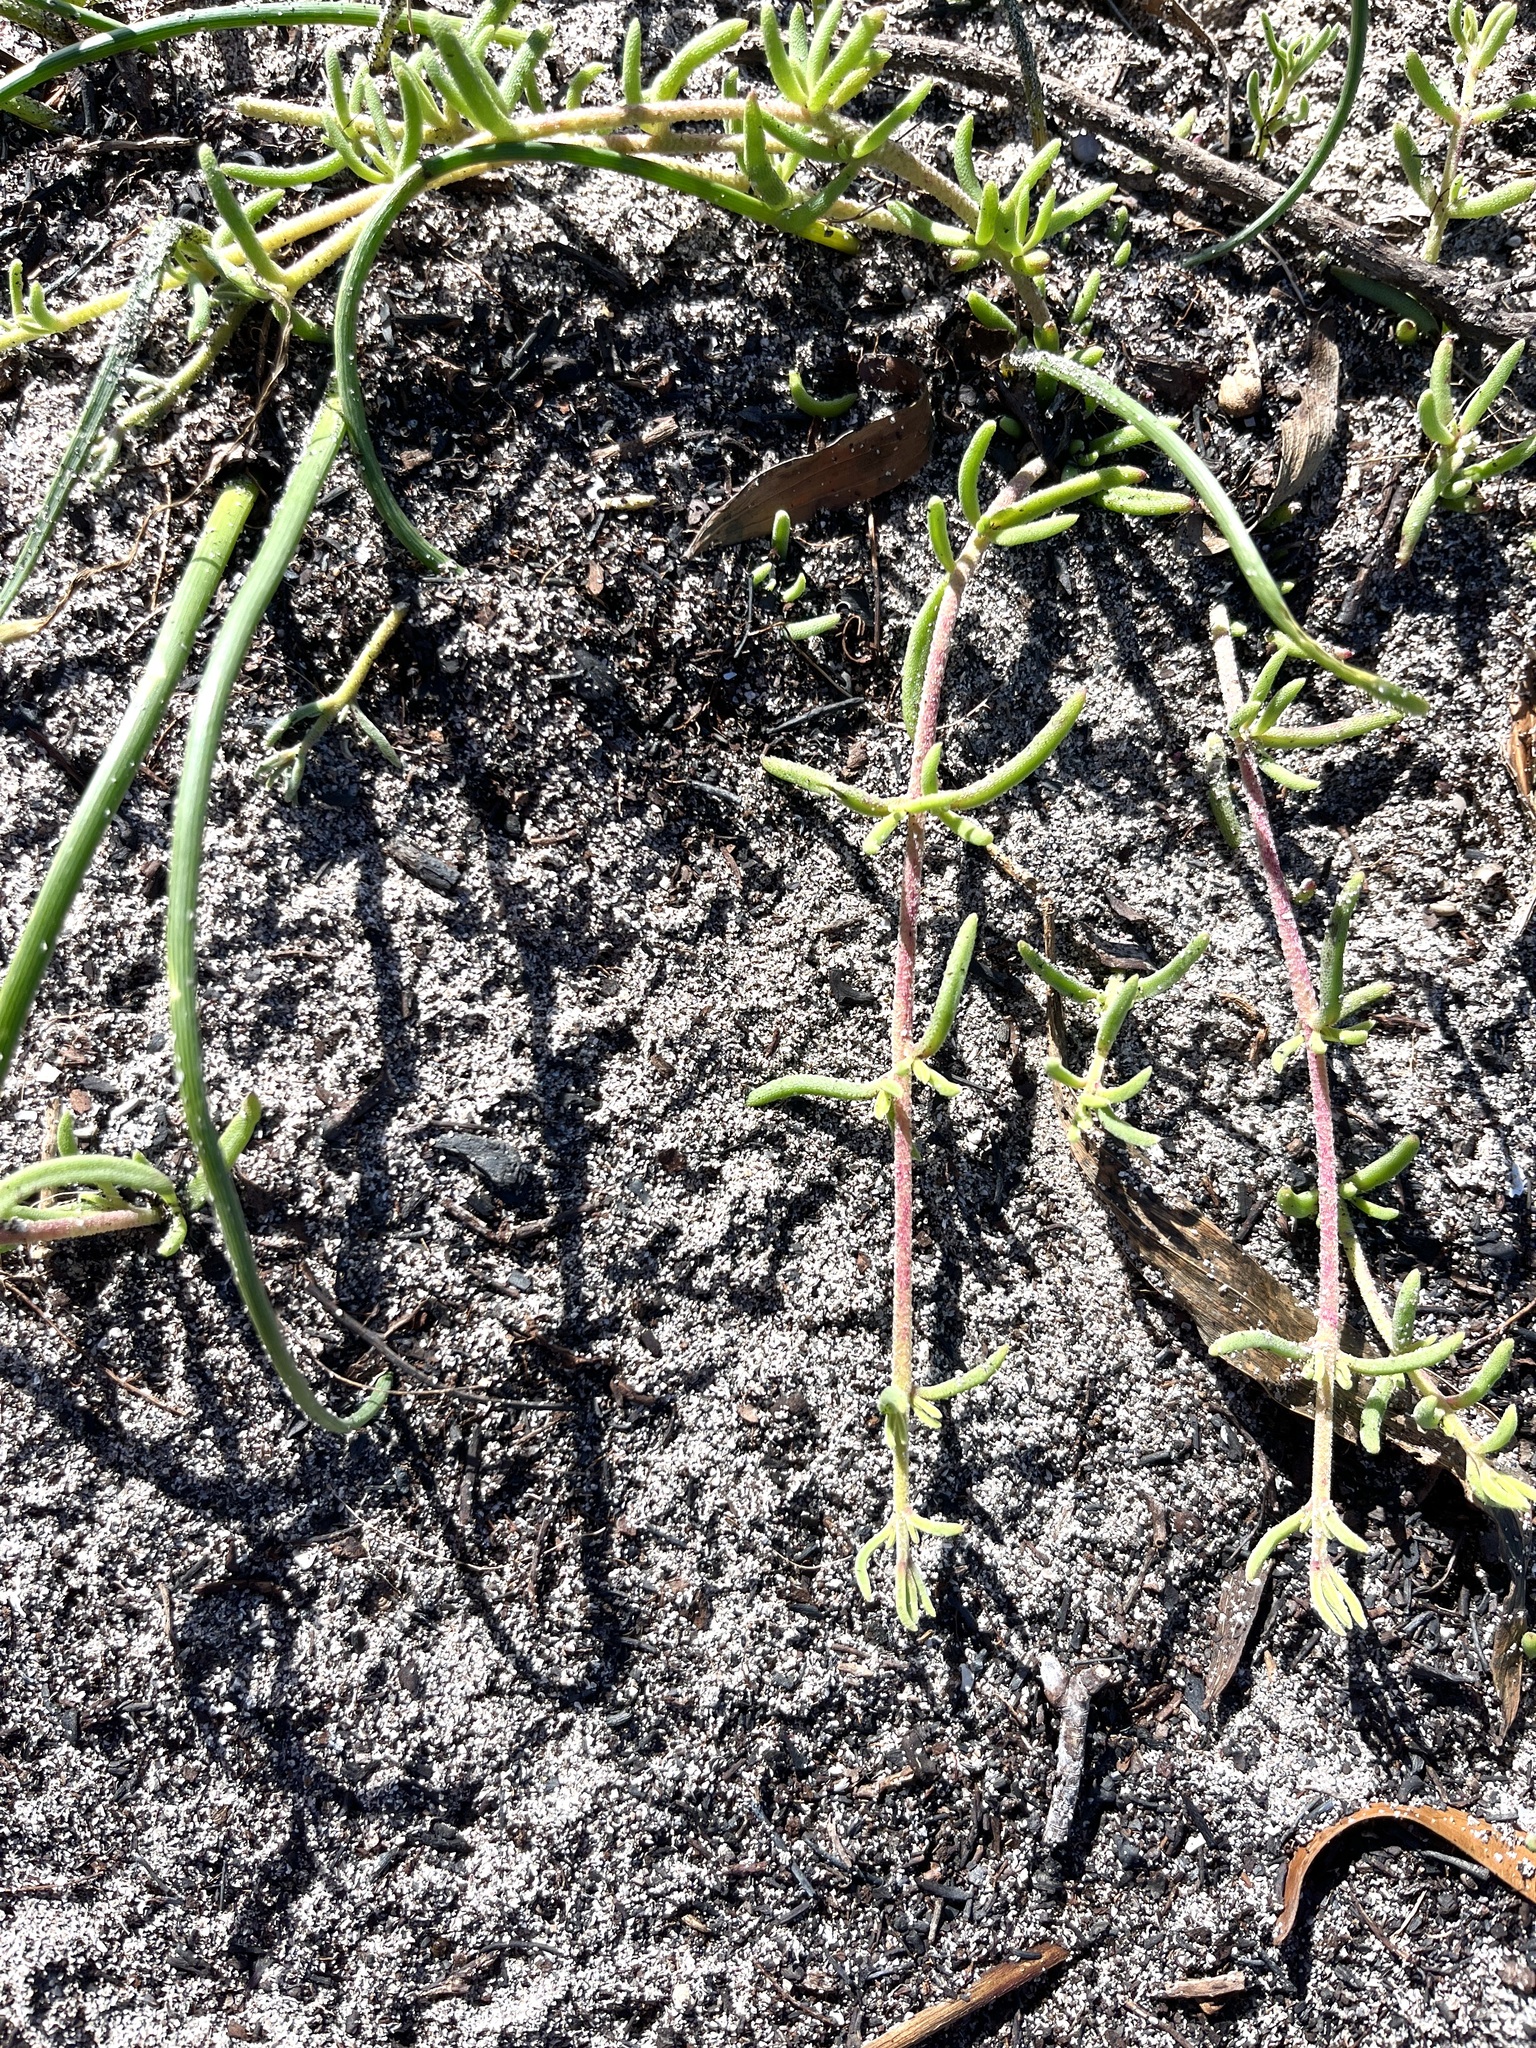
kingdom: Plantae
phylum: Tracheophyta
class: Magnoliopsida
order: Caryophyllales
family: Aizoaceae
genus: Mesembryanthemum
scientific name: Mesembryanthemum canaliculatum
